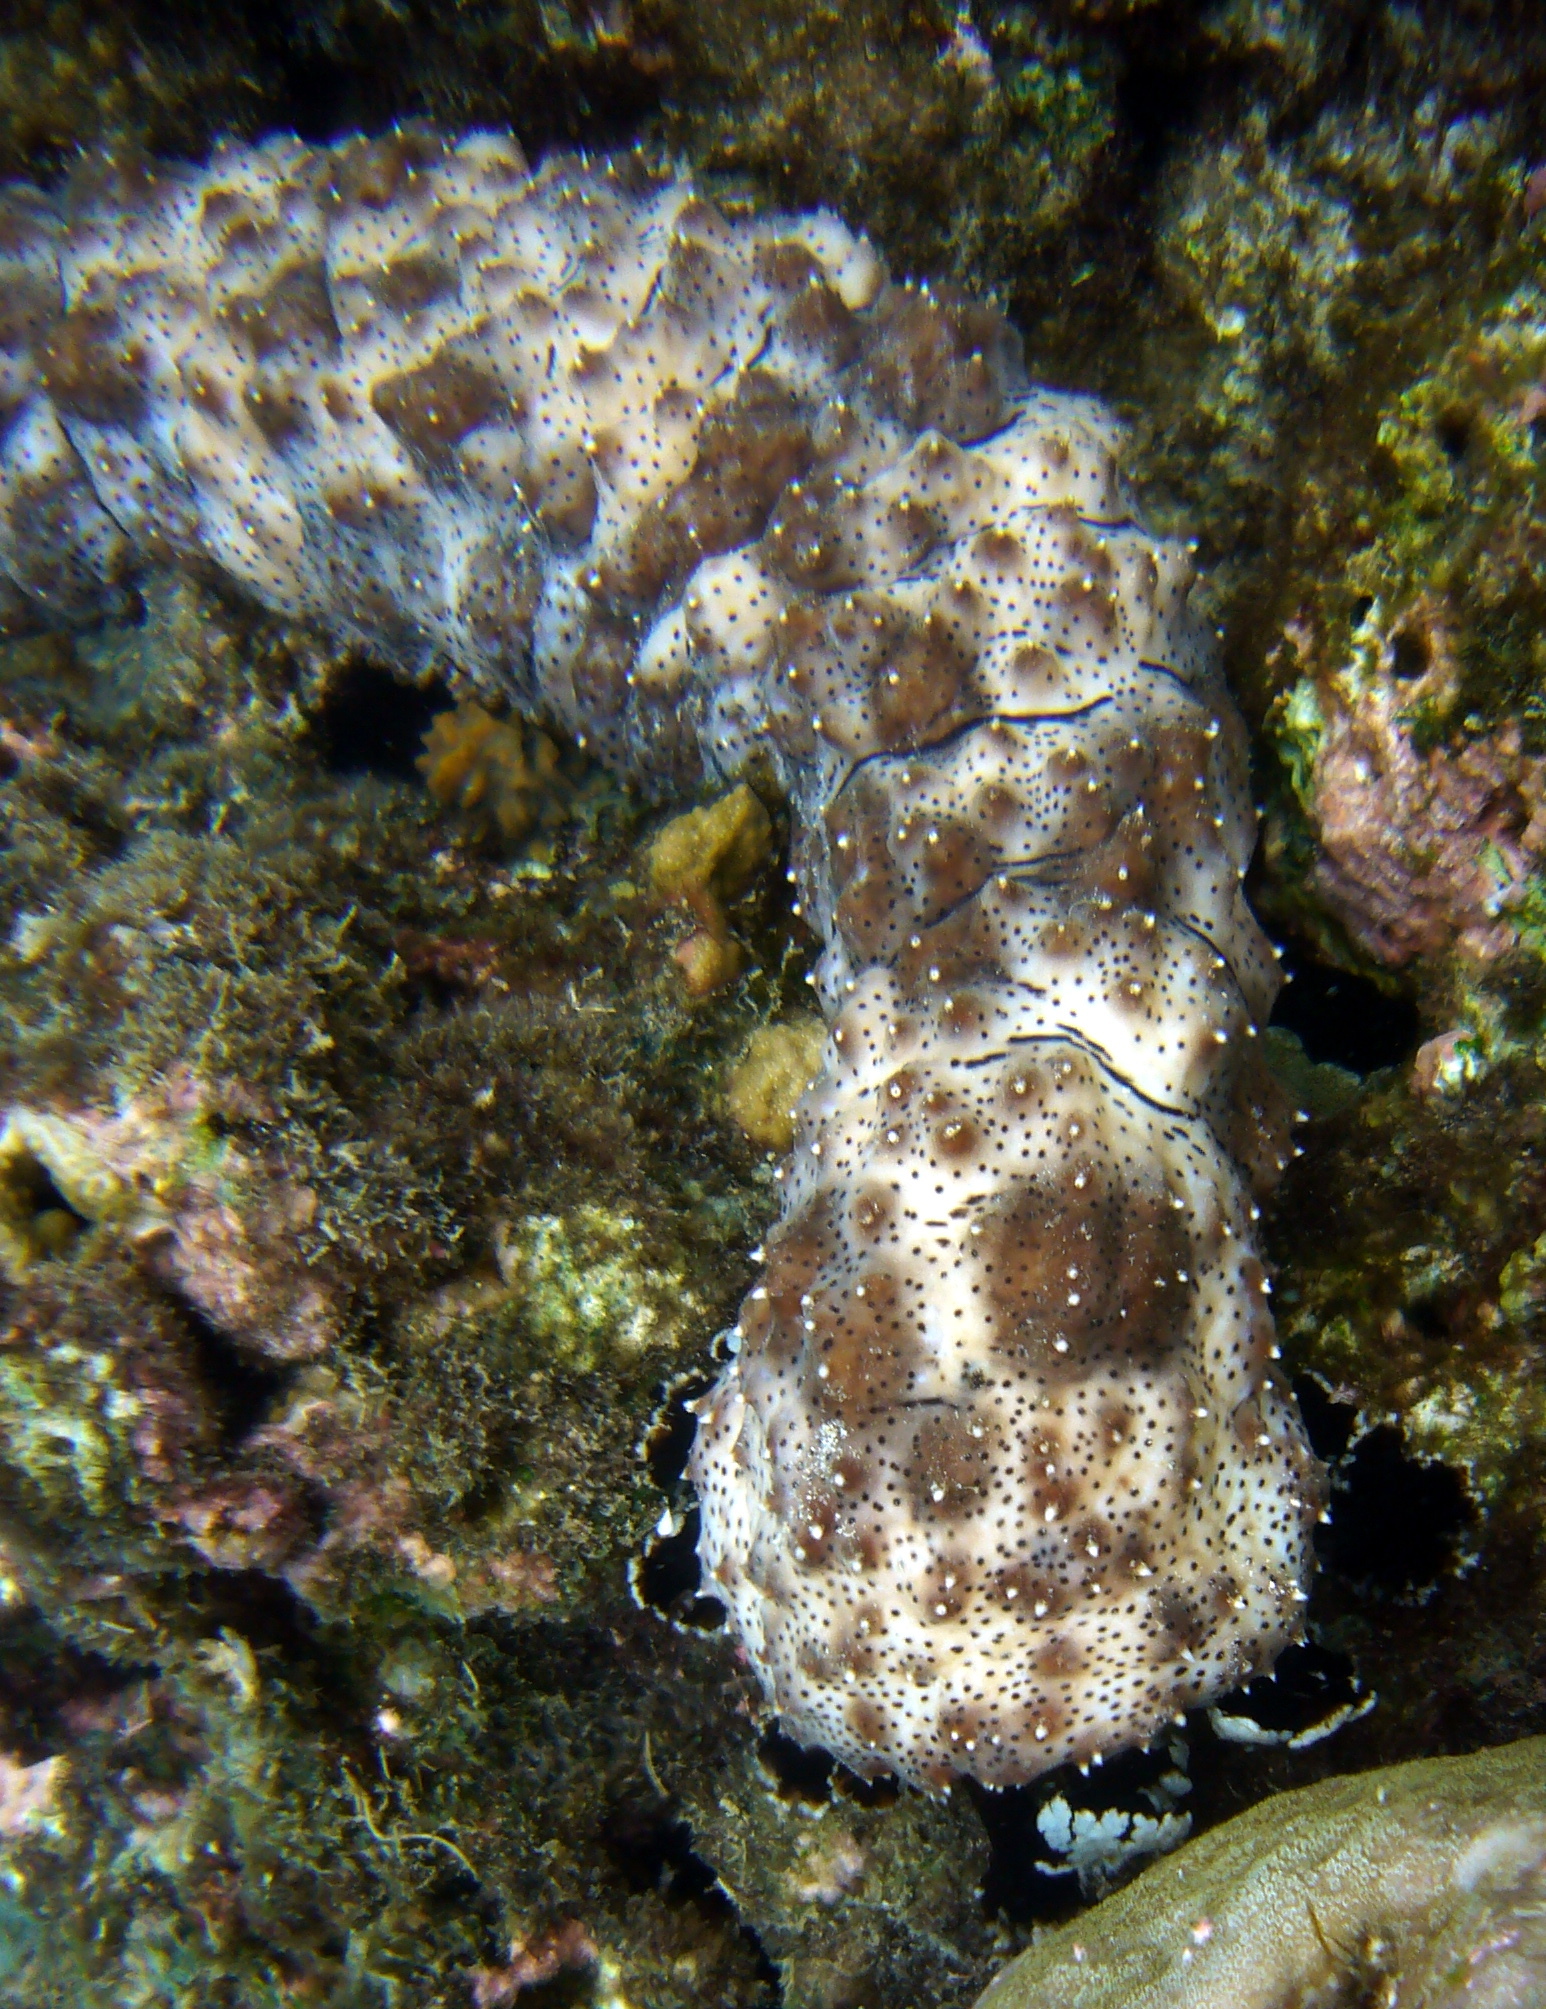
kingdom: Animalia
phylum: Echinodermata
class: Holothuroidea
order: Holothuriida
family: Holothuriidae
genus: Pearsonothuria
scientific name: Pearsonothuria graeffei
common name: Blackspotted sea cucumber
